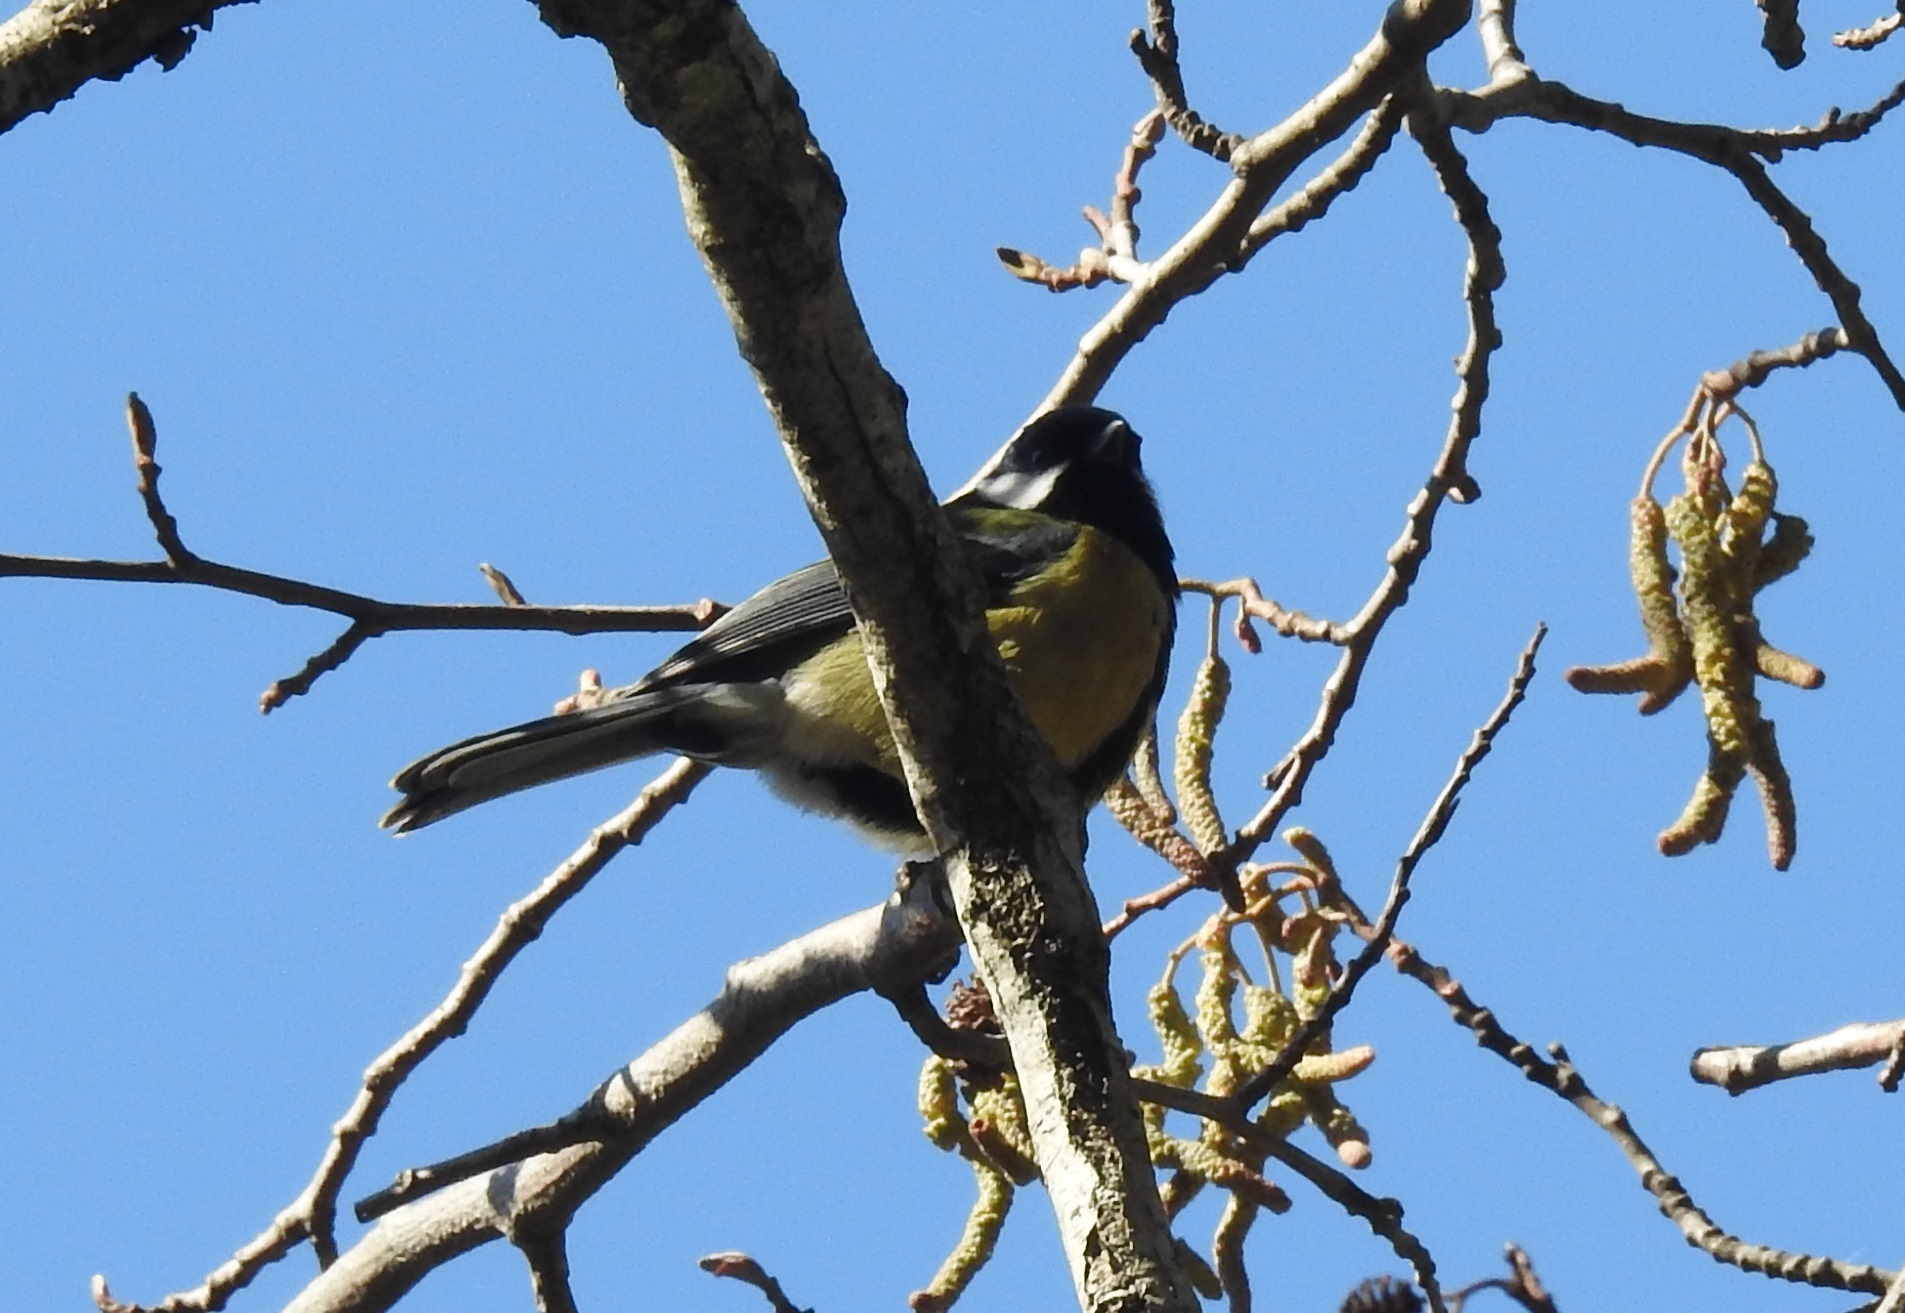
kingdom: Animalia
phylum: Chordata
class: Aves
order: Passeriformes
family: Paridae
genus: Parus
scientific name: Parus major
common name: Great tit
